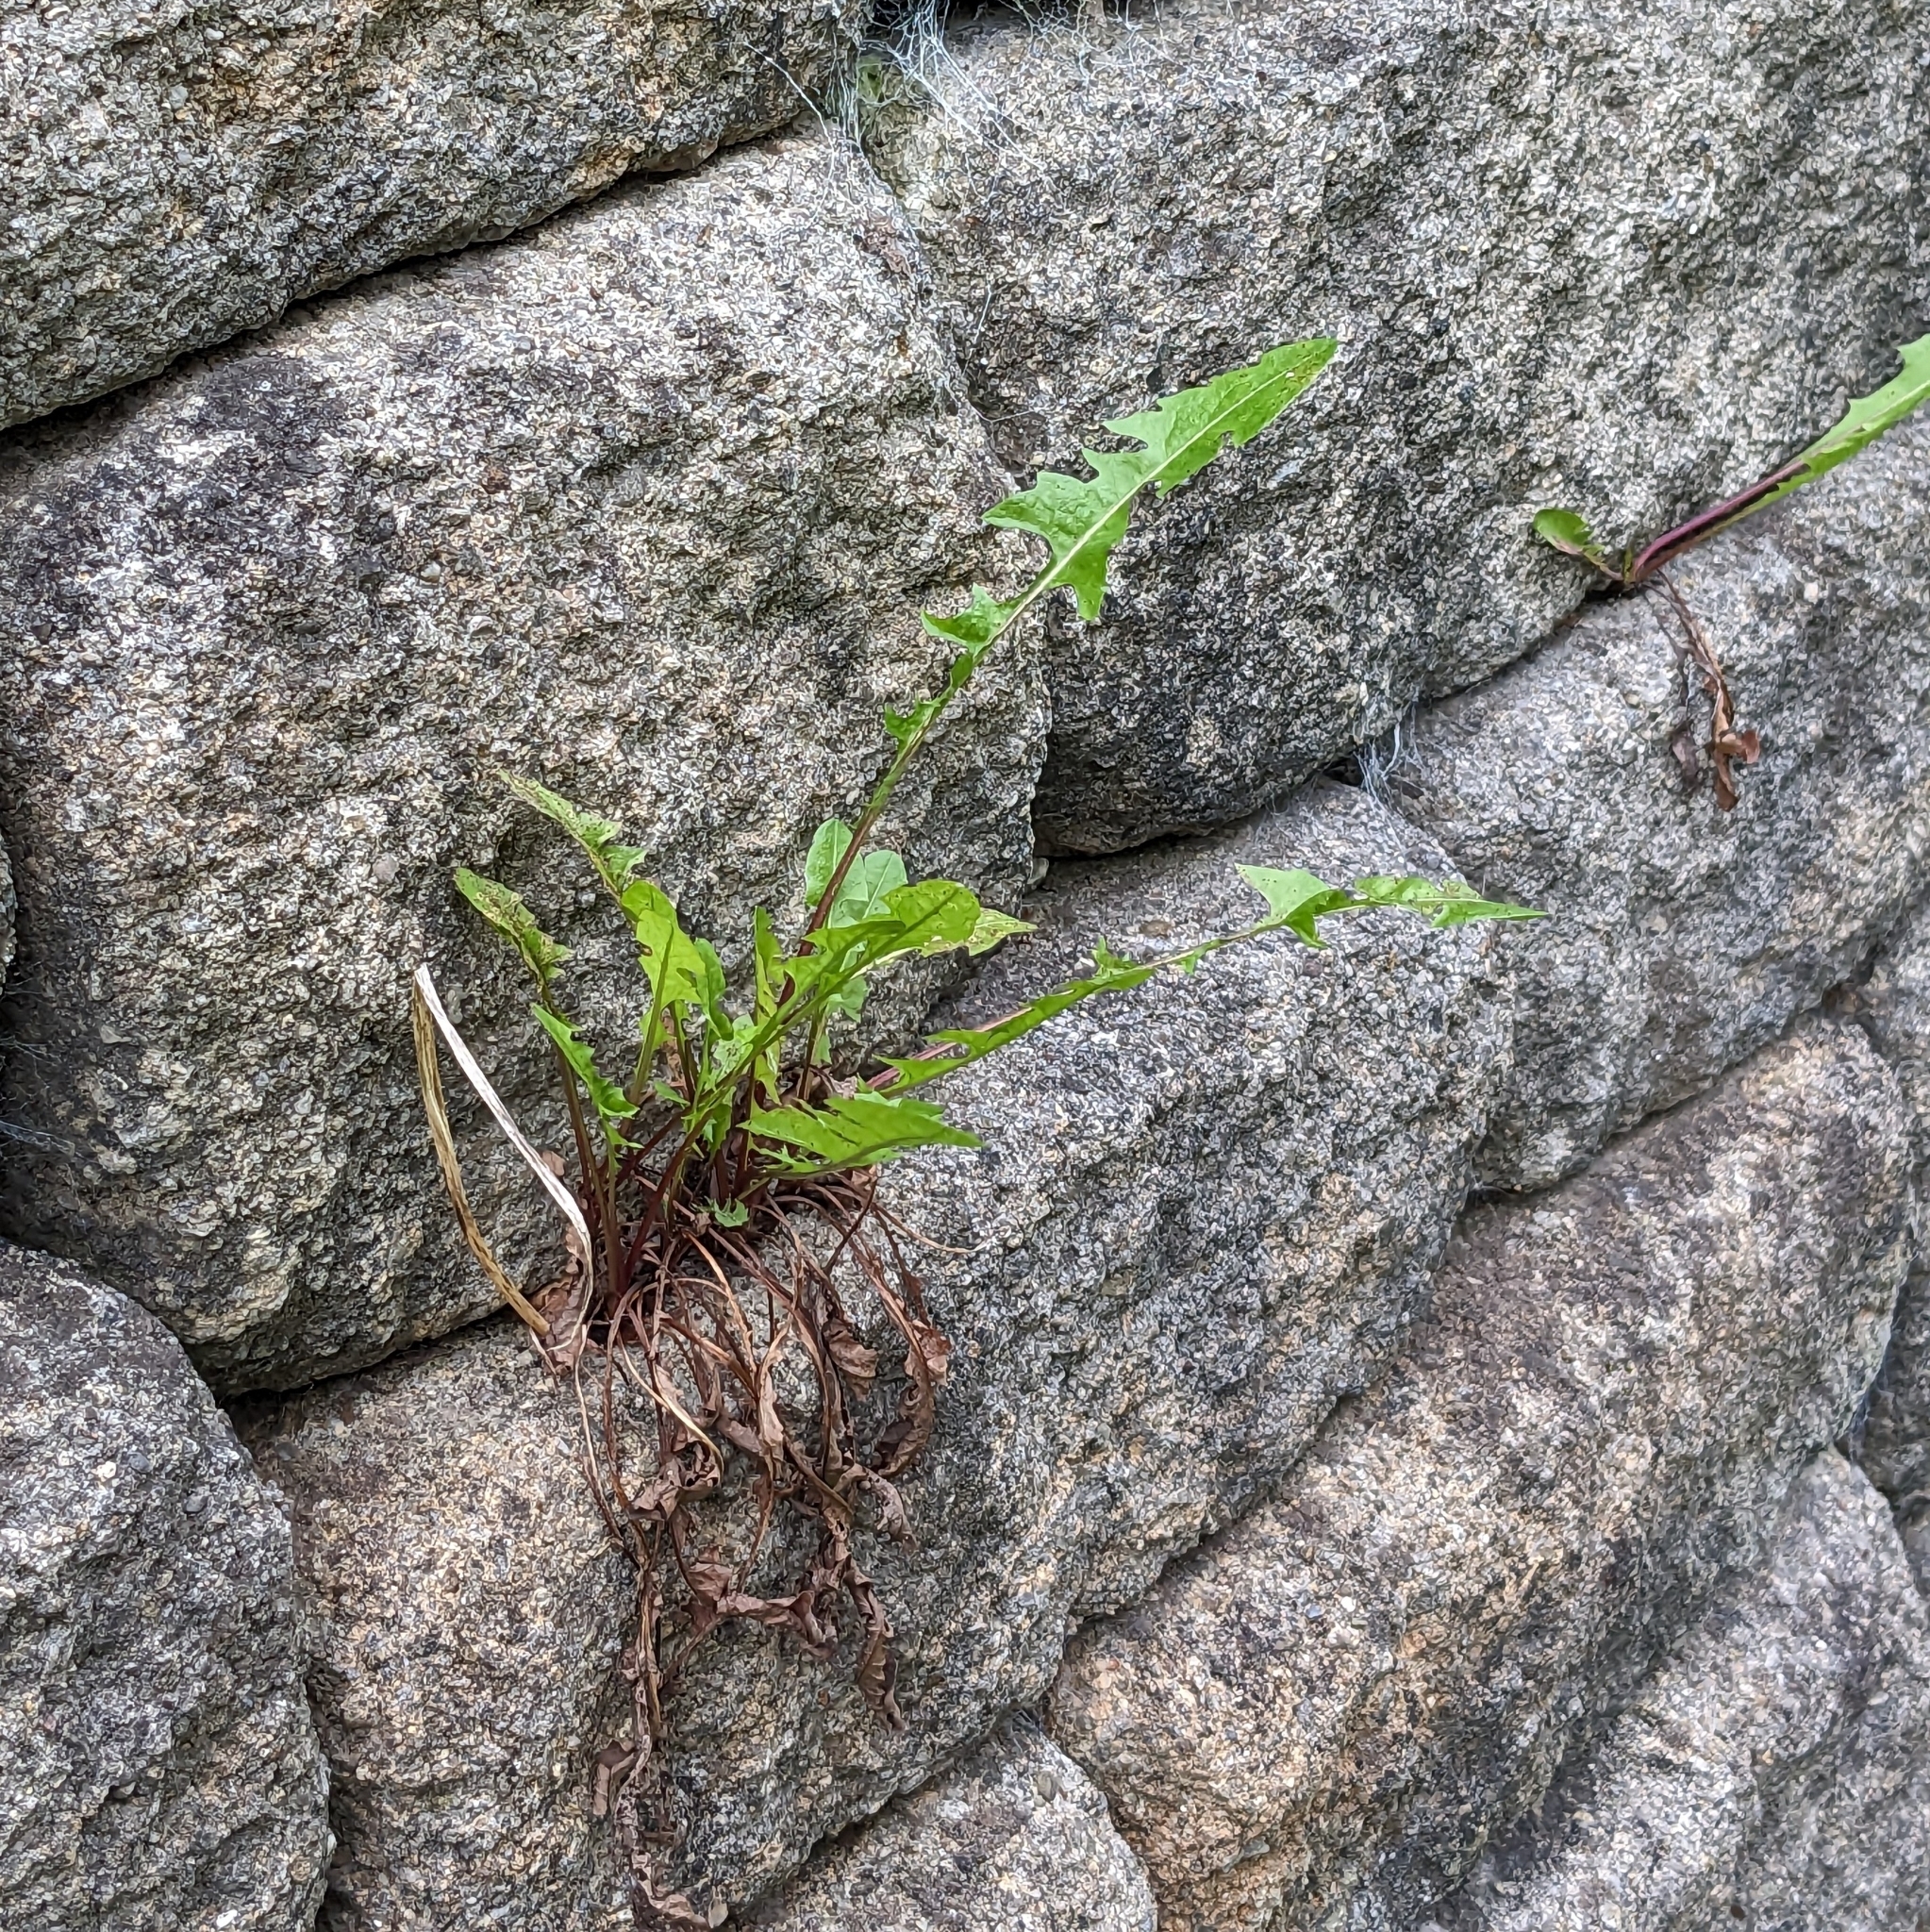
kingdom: Plantae
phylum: Tracheophyta
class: Magnoliopsida
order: Asterales
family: Asteraceae
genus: Taraxacum
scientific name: Taraxacum
